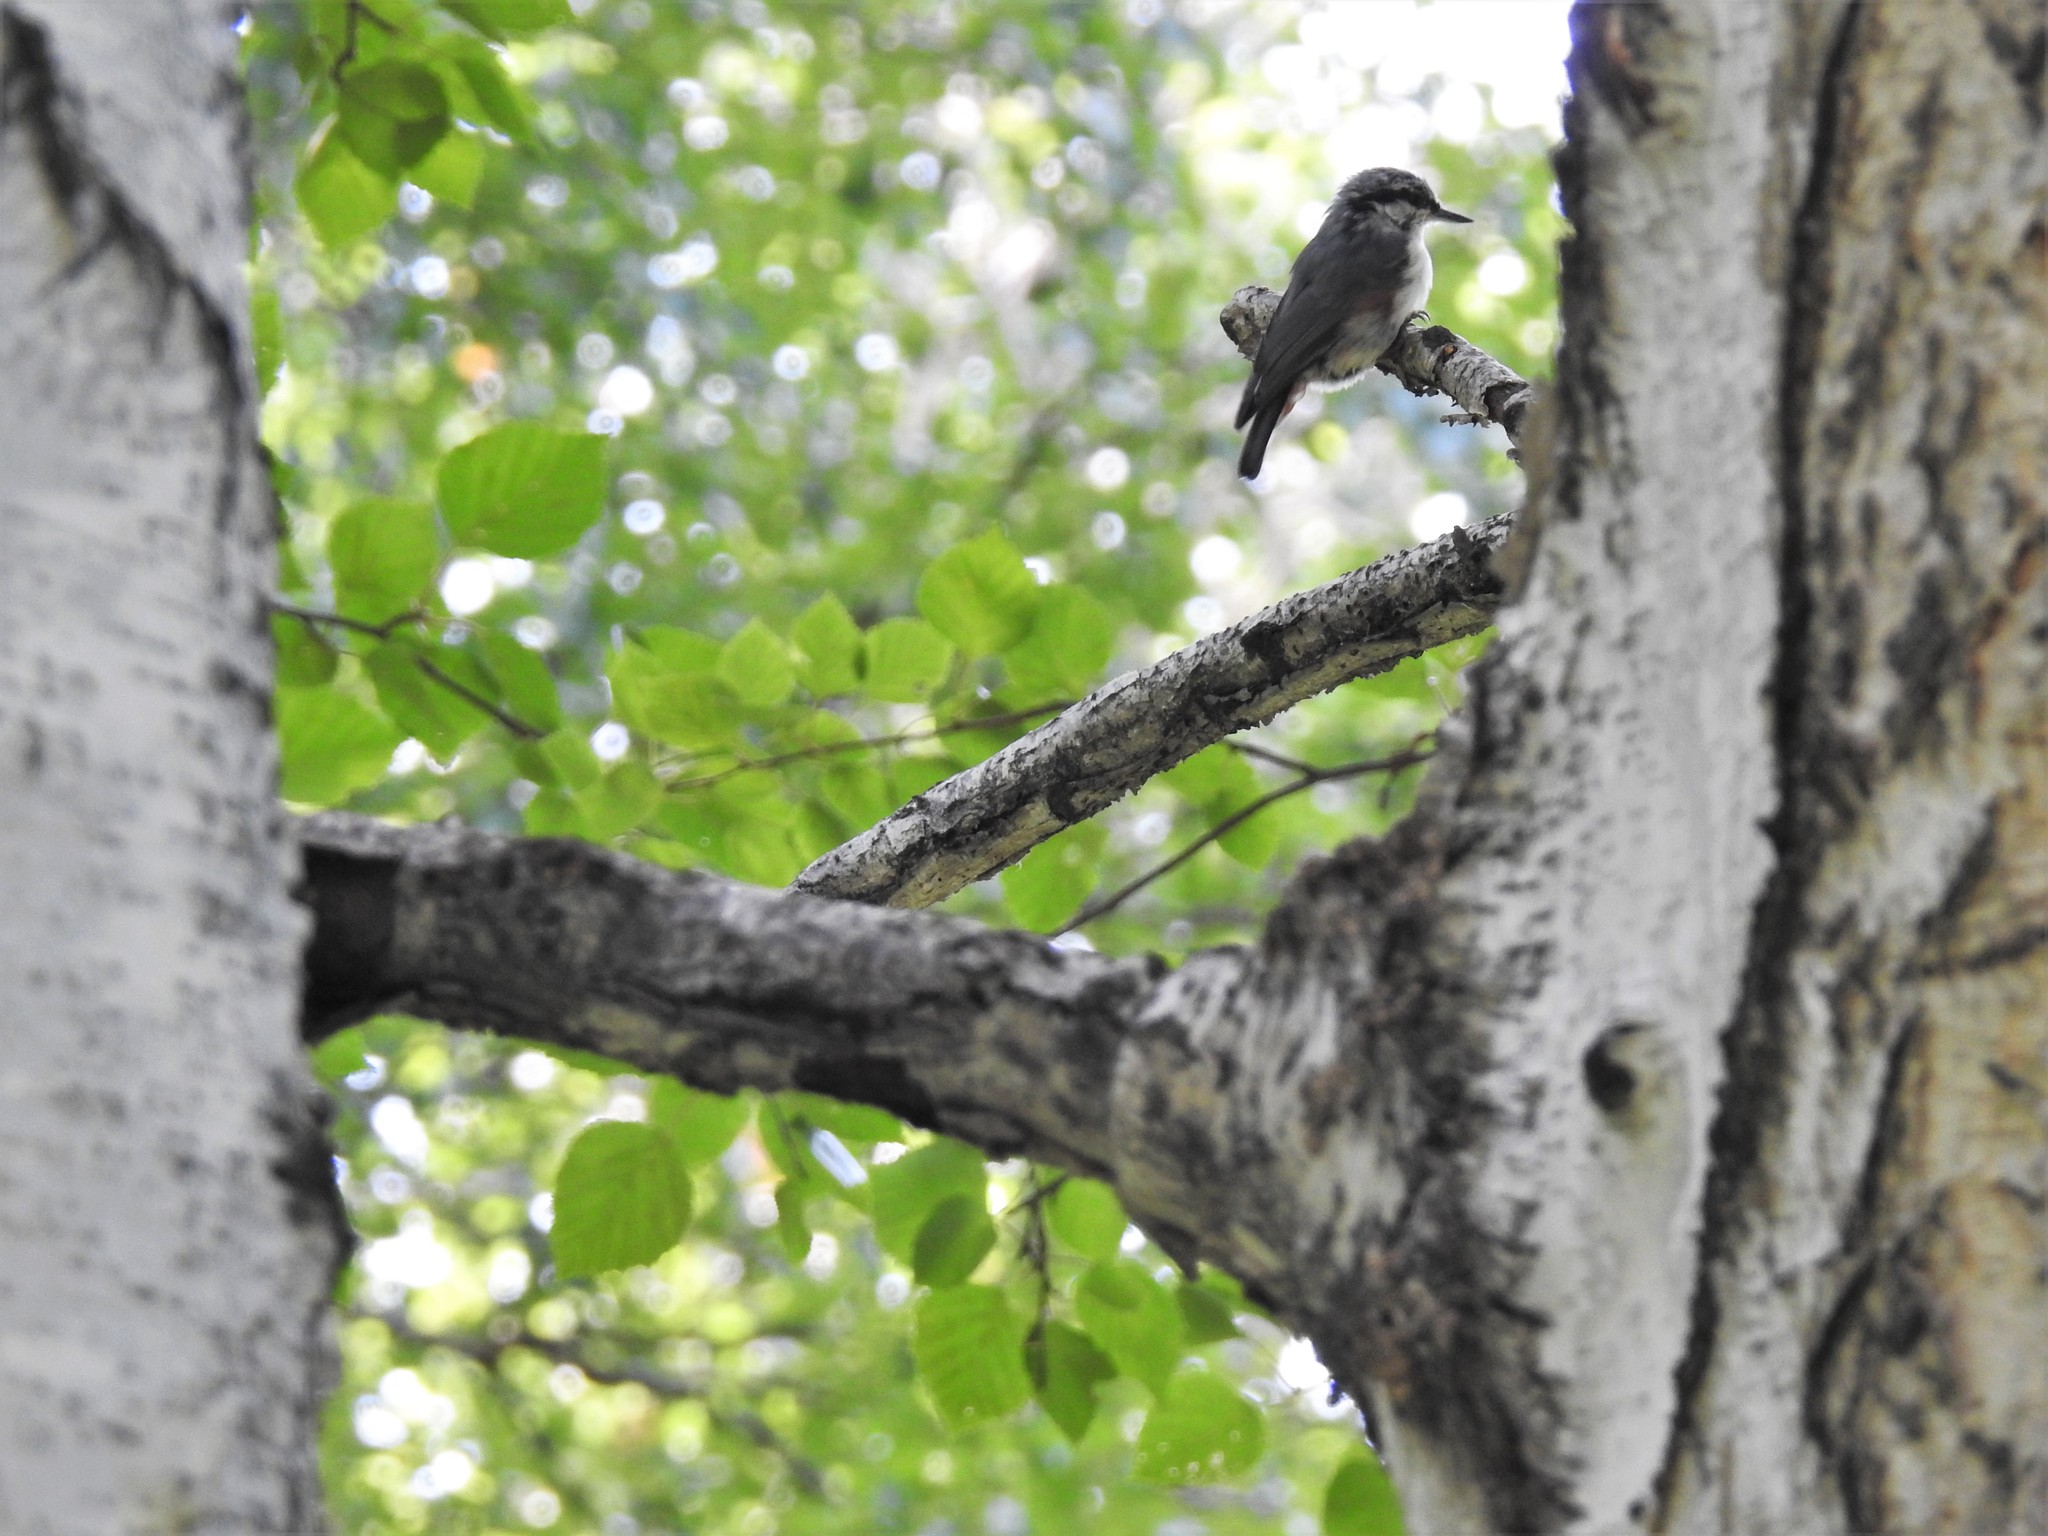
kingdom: Animalia
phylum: Chordata
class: Aves
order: Passeriformes
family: Sittidae
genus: Sitta
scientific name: Sitta europaea
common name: Eurasian nuthatch
